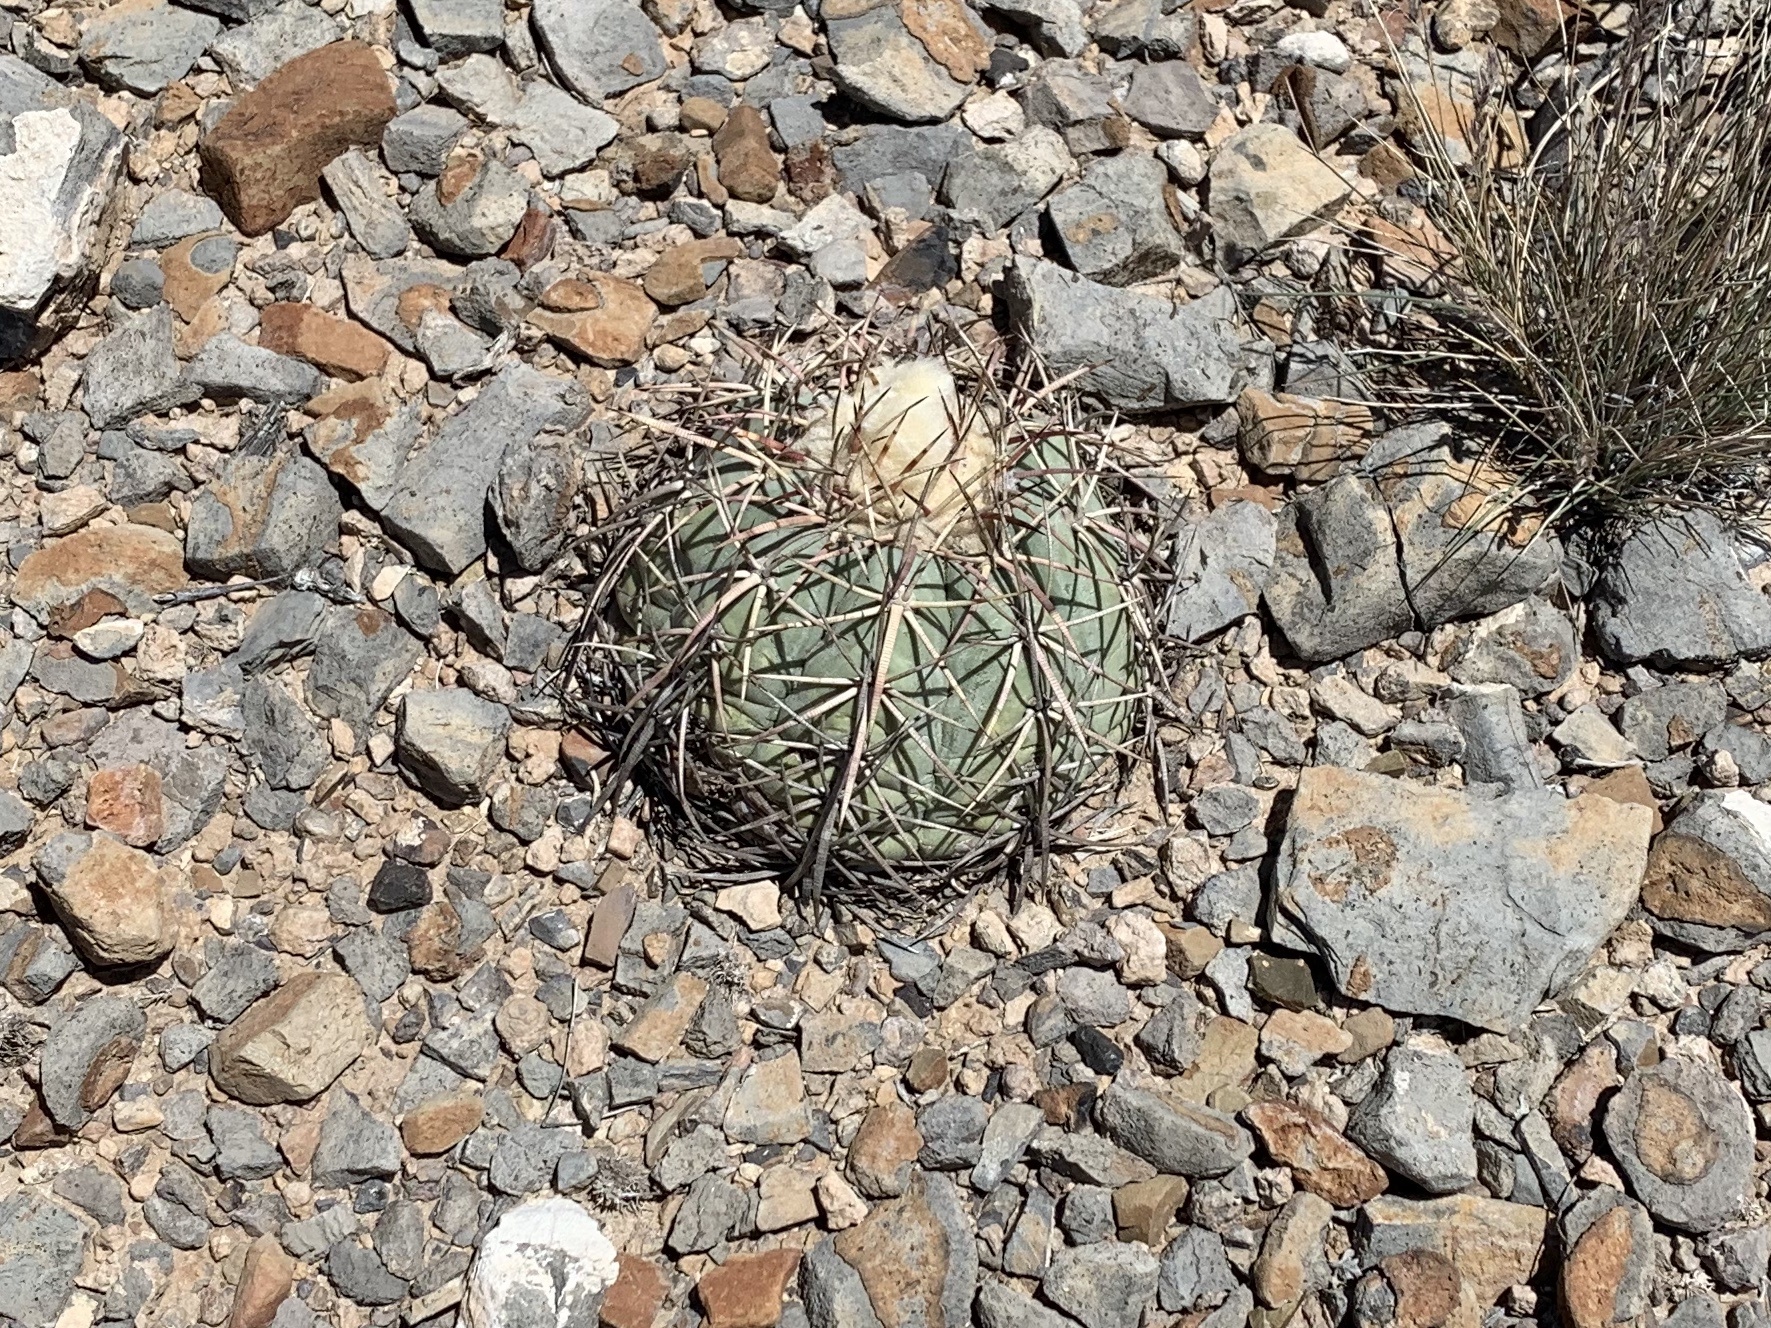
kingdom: Plantae
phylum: Tracheophyta
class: Magnoliopsida
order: Caryophyllales
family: Cactaceae
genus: Echinocactus
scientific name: Echinocactus horizonthalonius
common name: Devilshead
